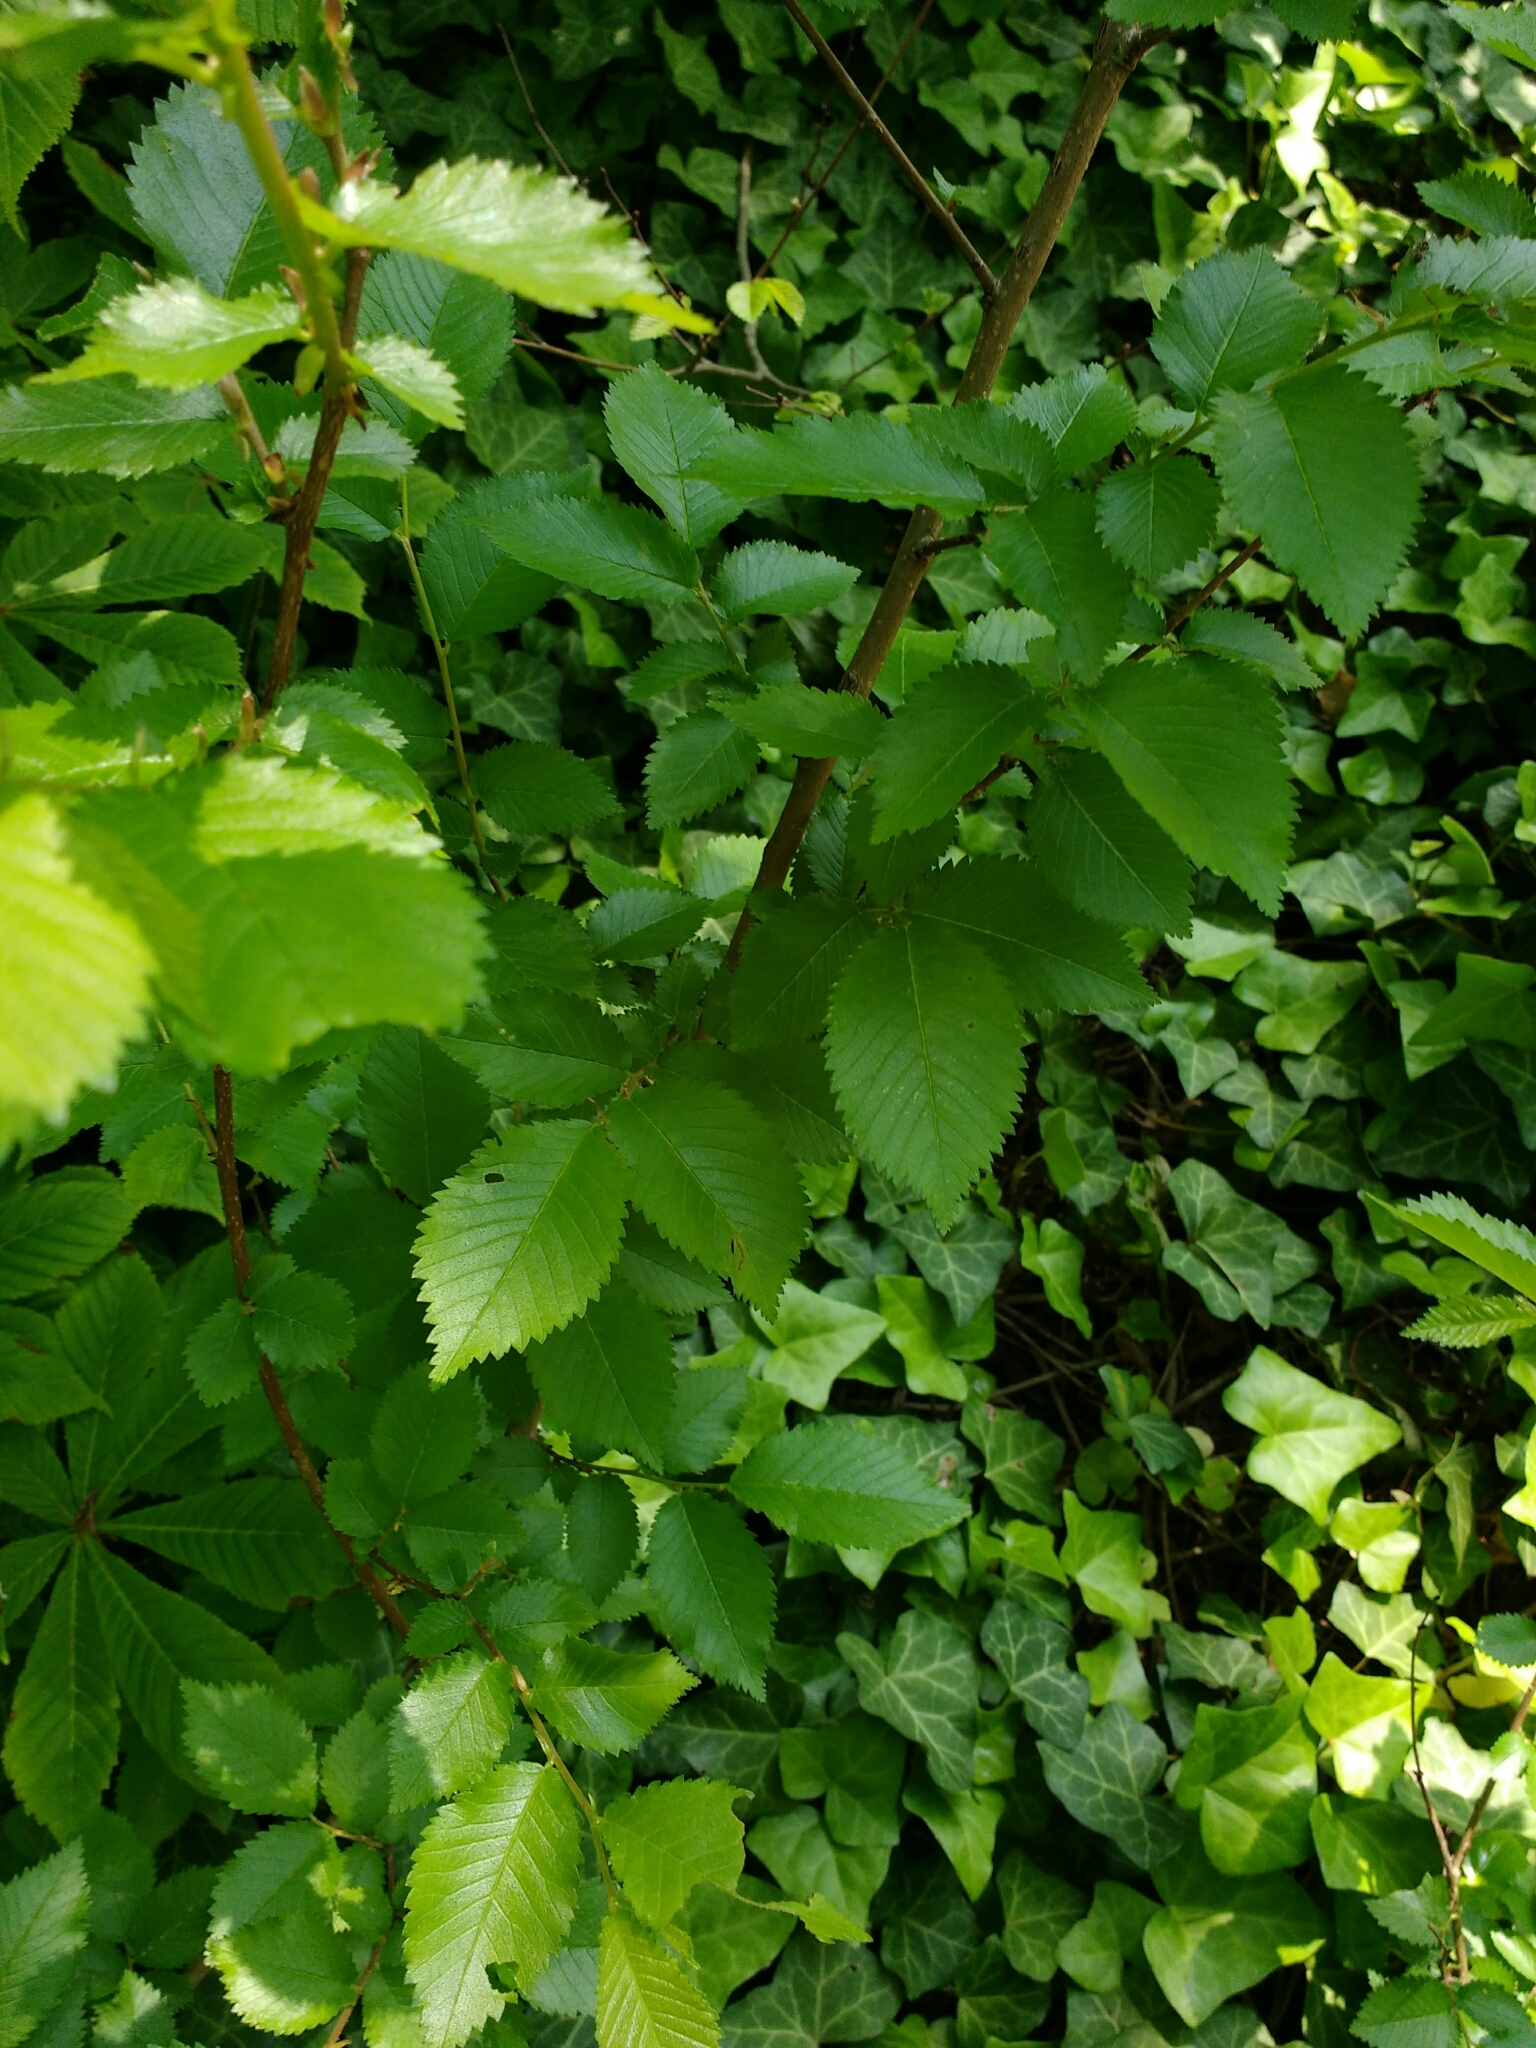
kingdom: Plantae
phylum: Tracheophyta
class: Magnoliopsida
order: Rosales
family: Ulmaceae
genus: Ulmus
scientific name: Ulmus minor
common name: Small-leaved elm
